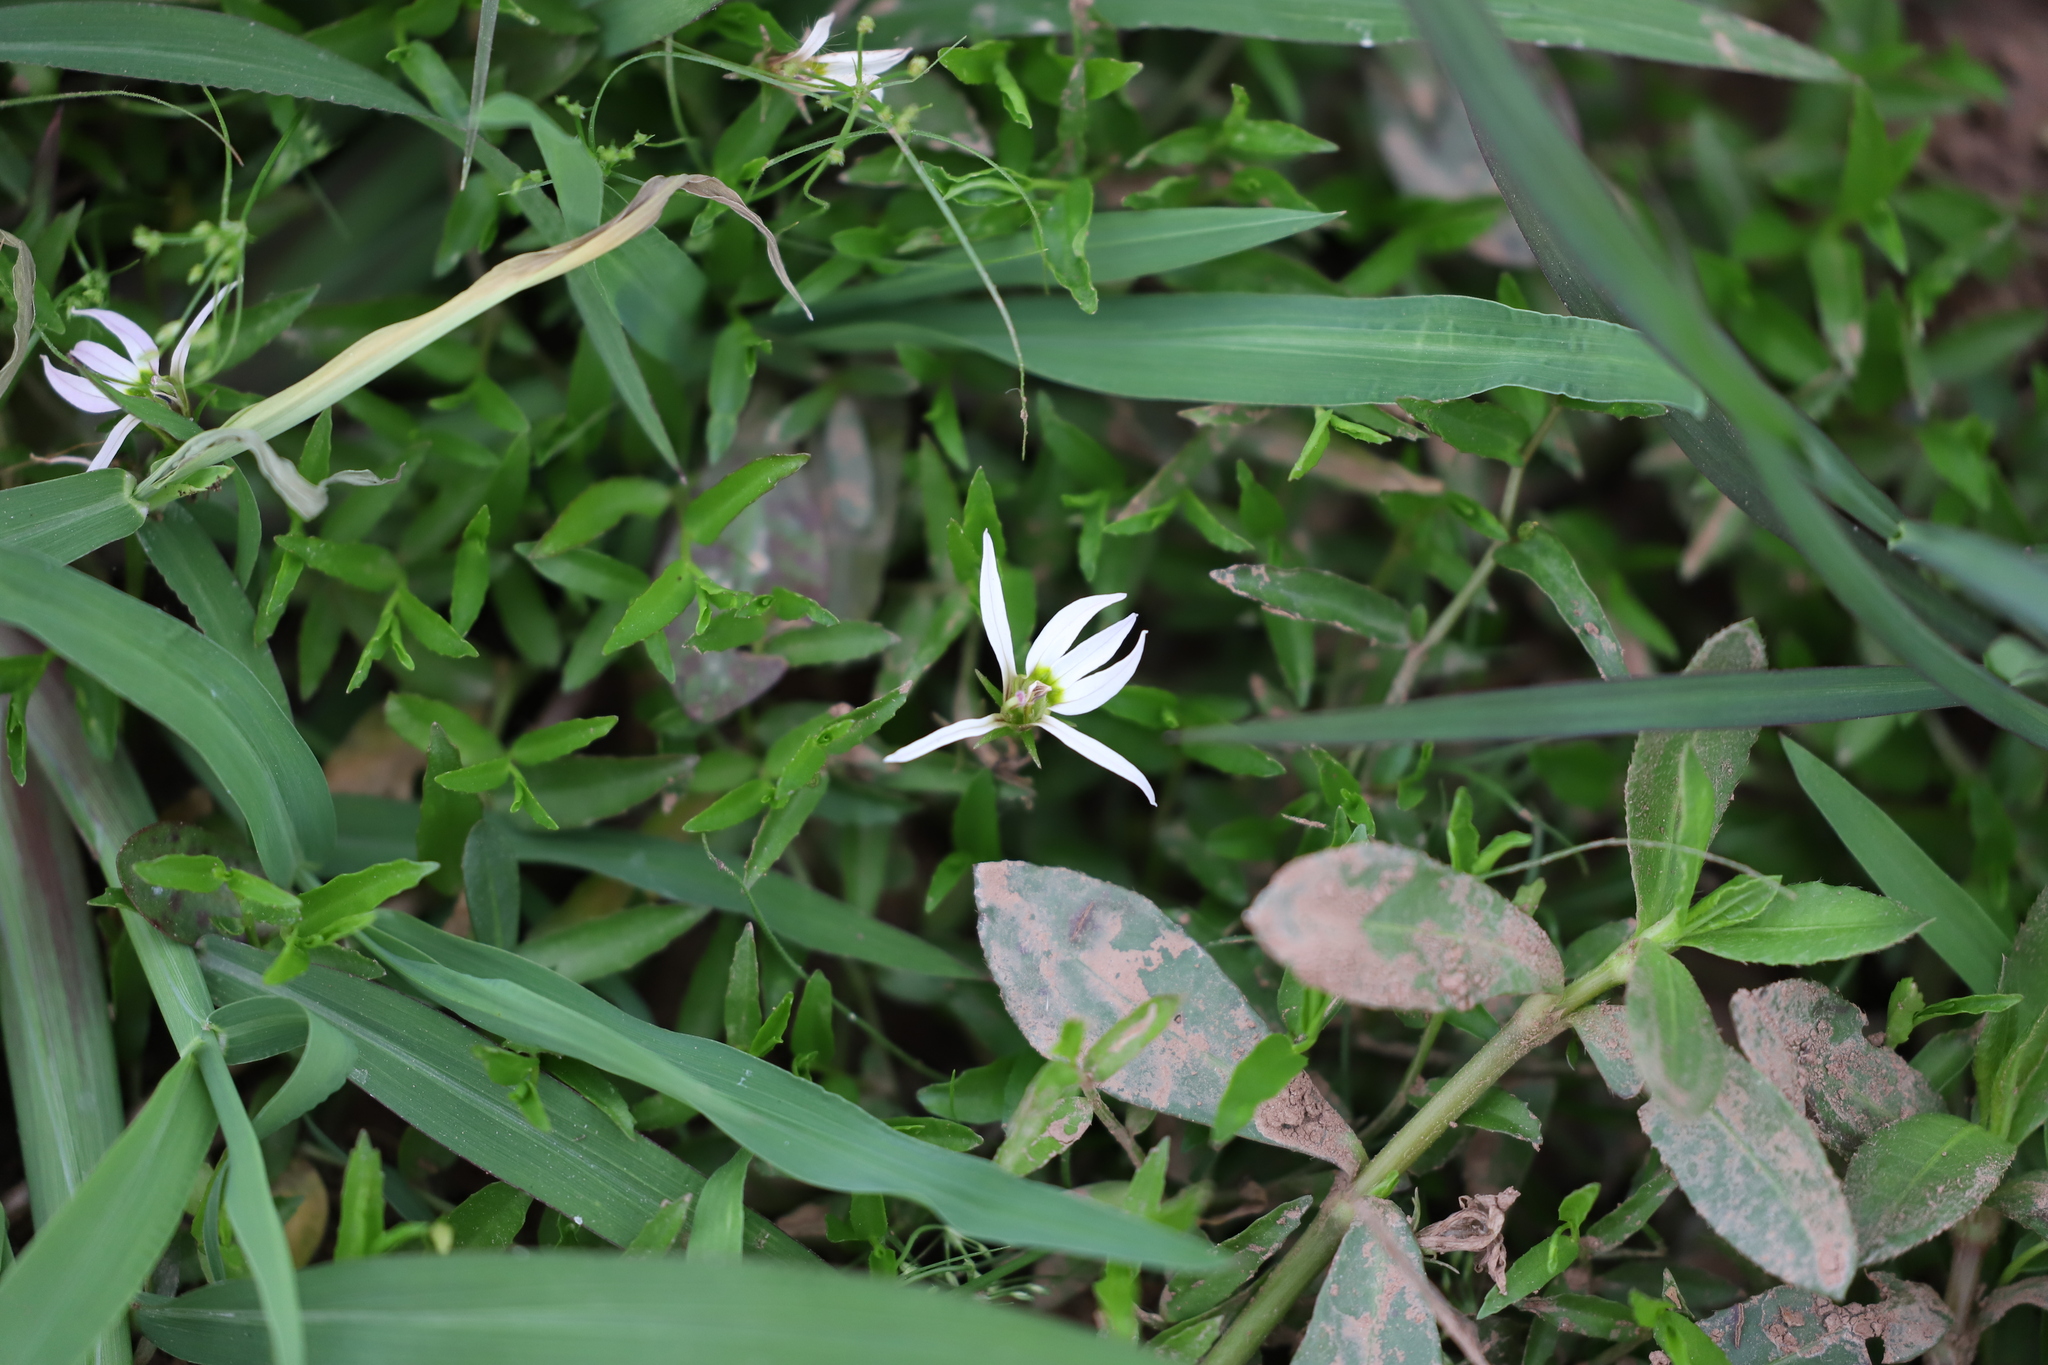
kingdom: Plantae
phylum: Tracheophyta
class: Magnoliopsida
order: Asterales
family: Campanulaceae
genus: Lobelia
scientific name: Lobelia chinensis
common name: Chinese lobelia
